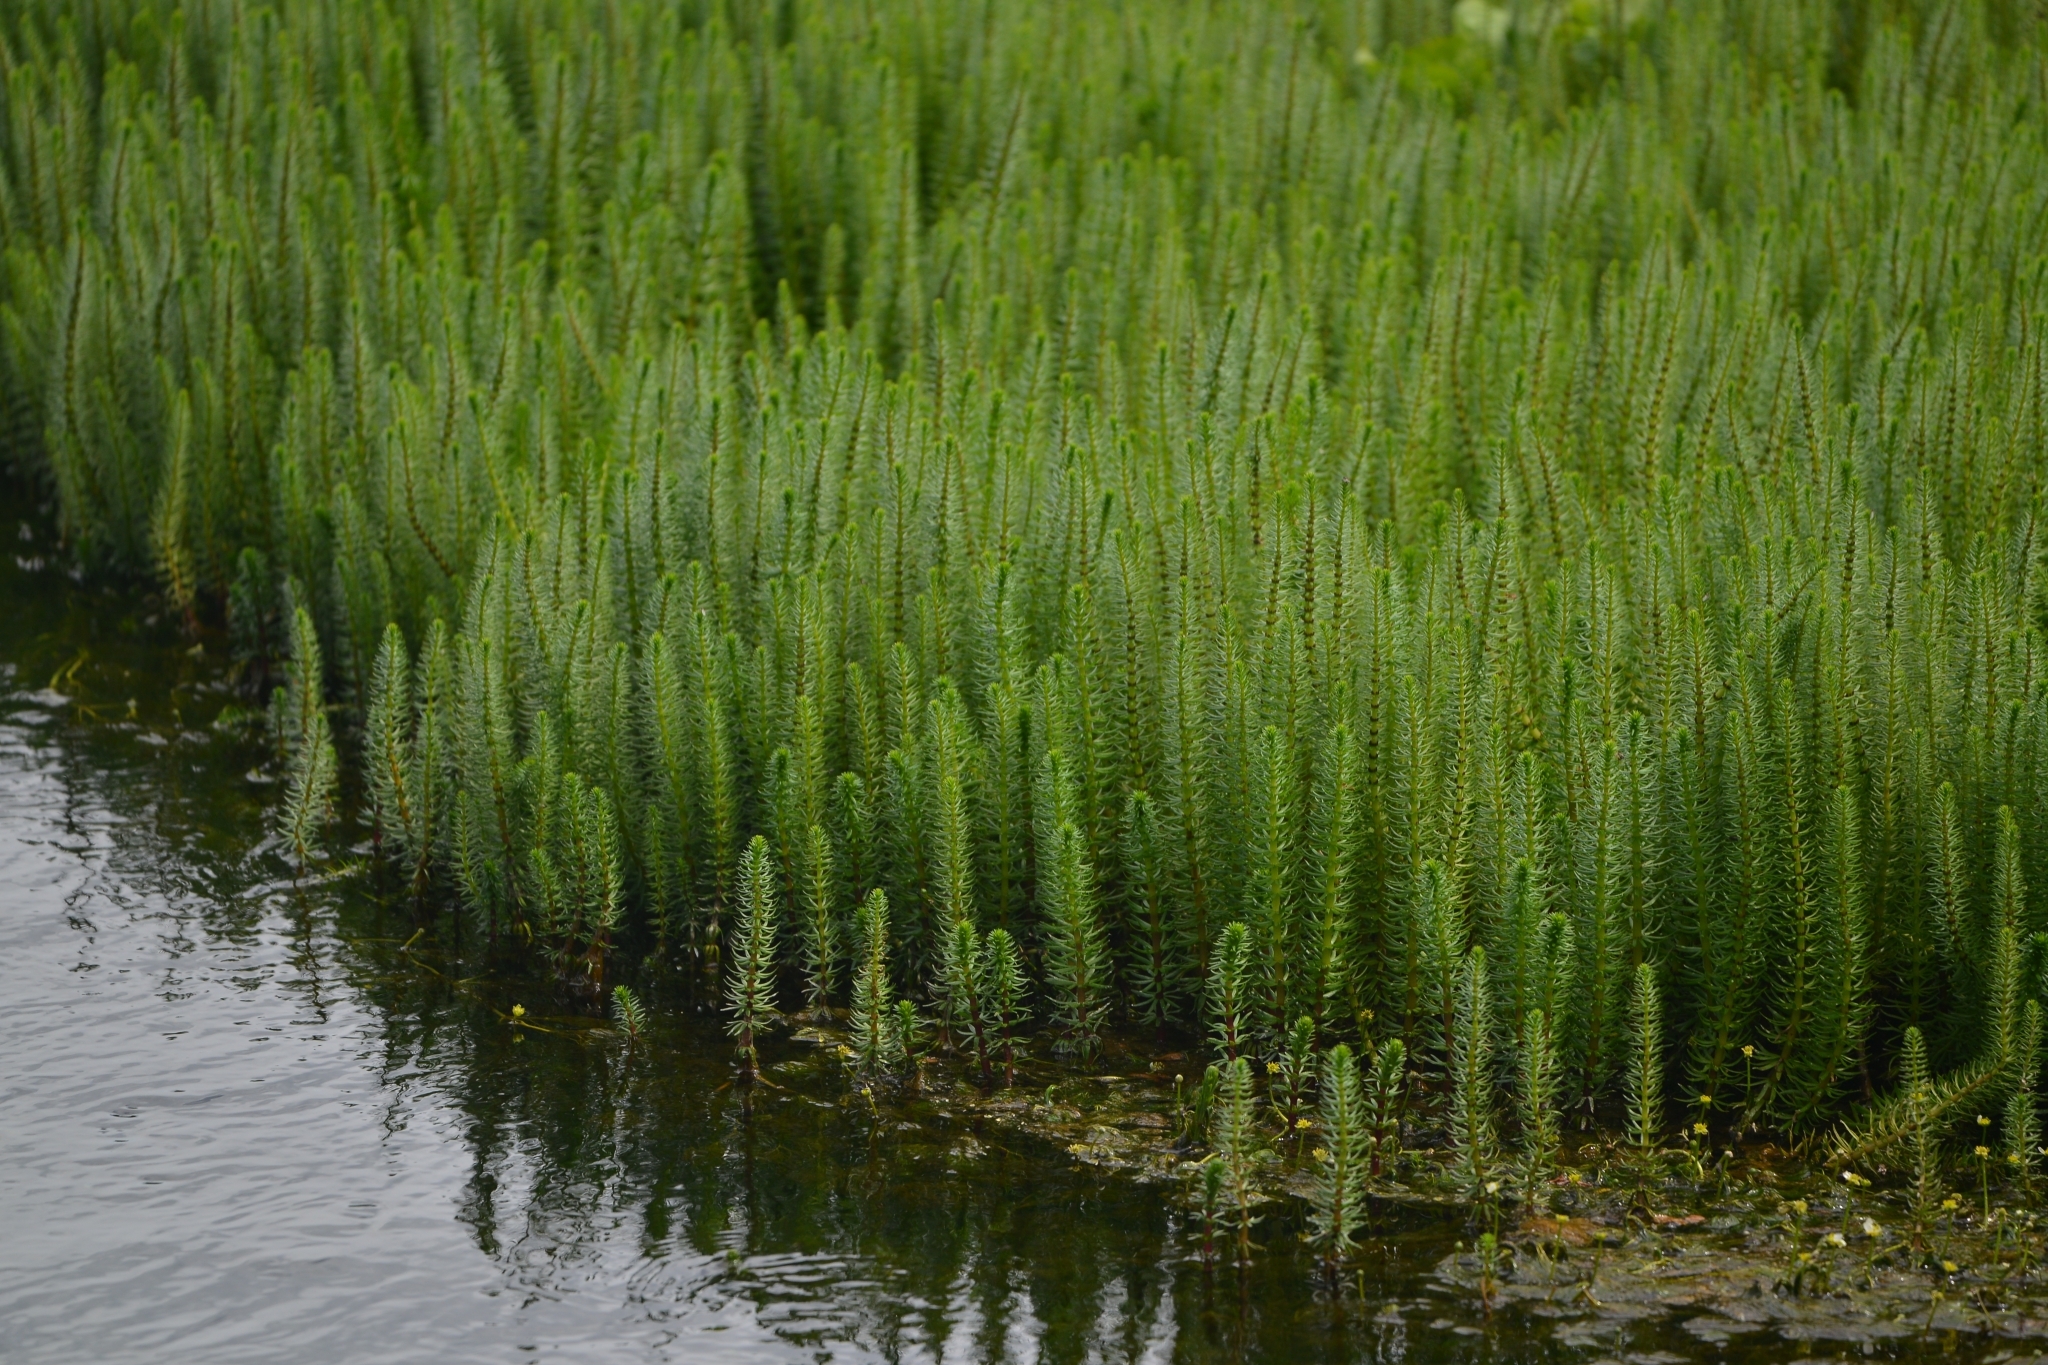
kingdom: Plantae
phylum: Tracheophyta
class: Magnoliopsida
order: Lamiales
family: Plantaginaceae
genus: Hippuris
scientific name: Hippuris vulgaris
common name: Mare's-tail
